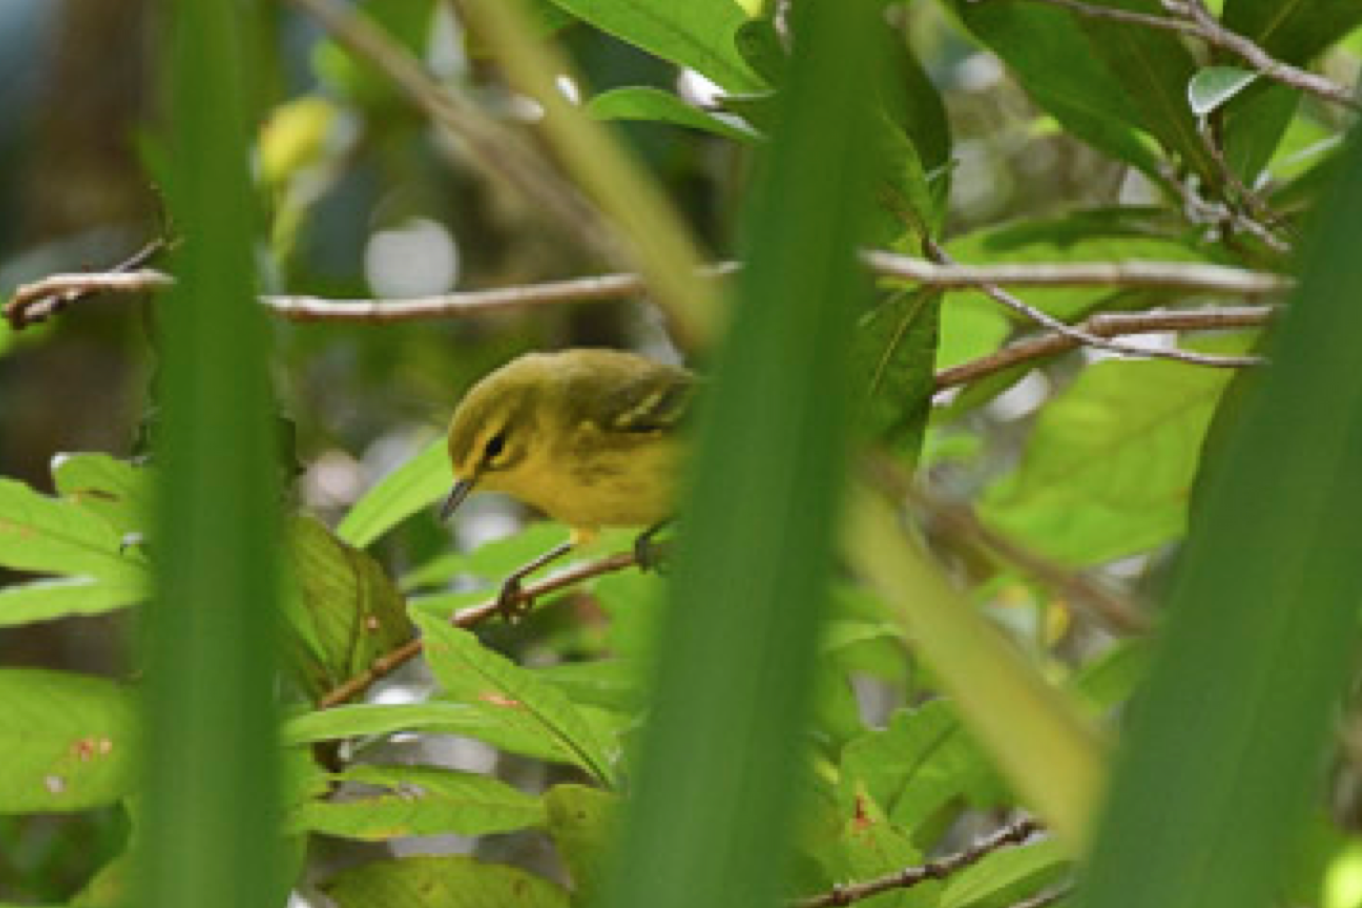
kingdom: Animalia
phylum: Chordata
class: Aves
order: Passeriformes
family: Parulidae
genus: Setophaga
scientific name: Setophaga discolor
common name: Prairie warbler
